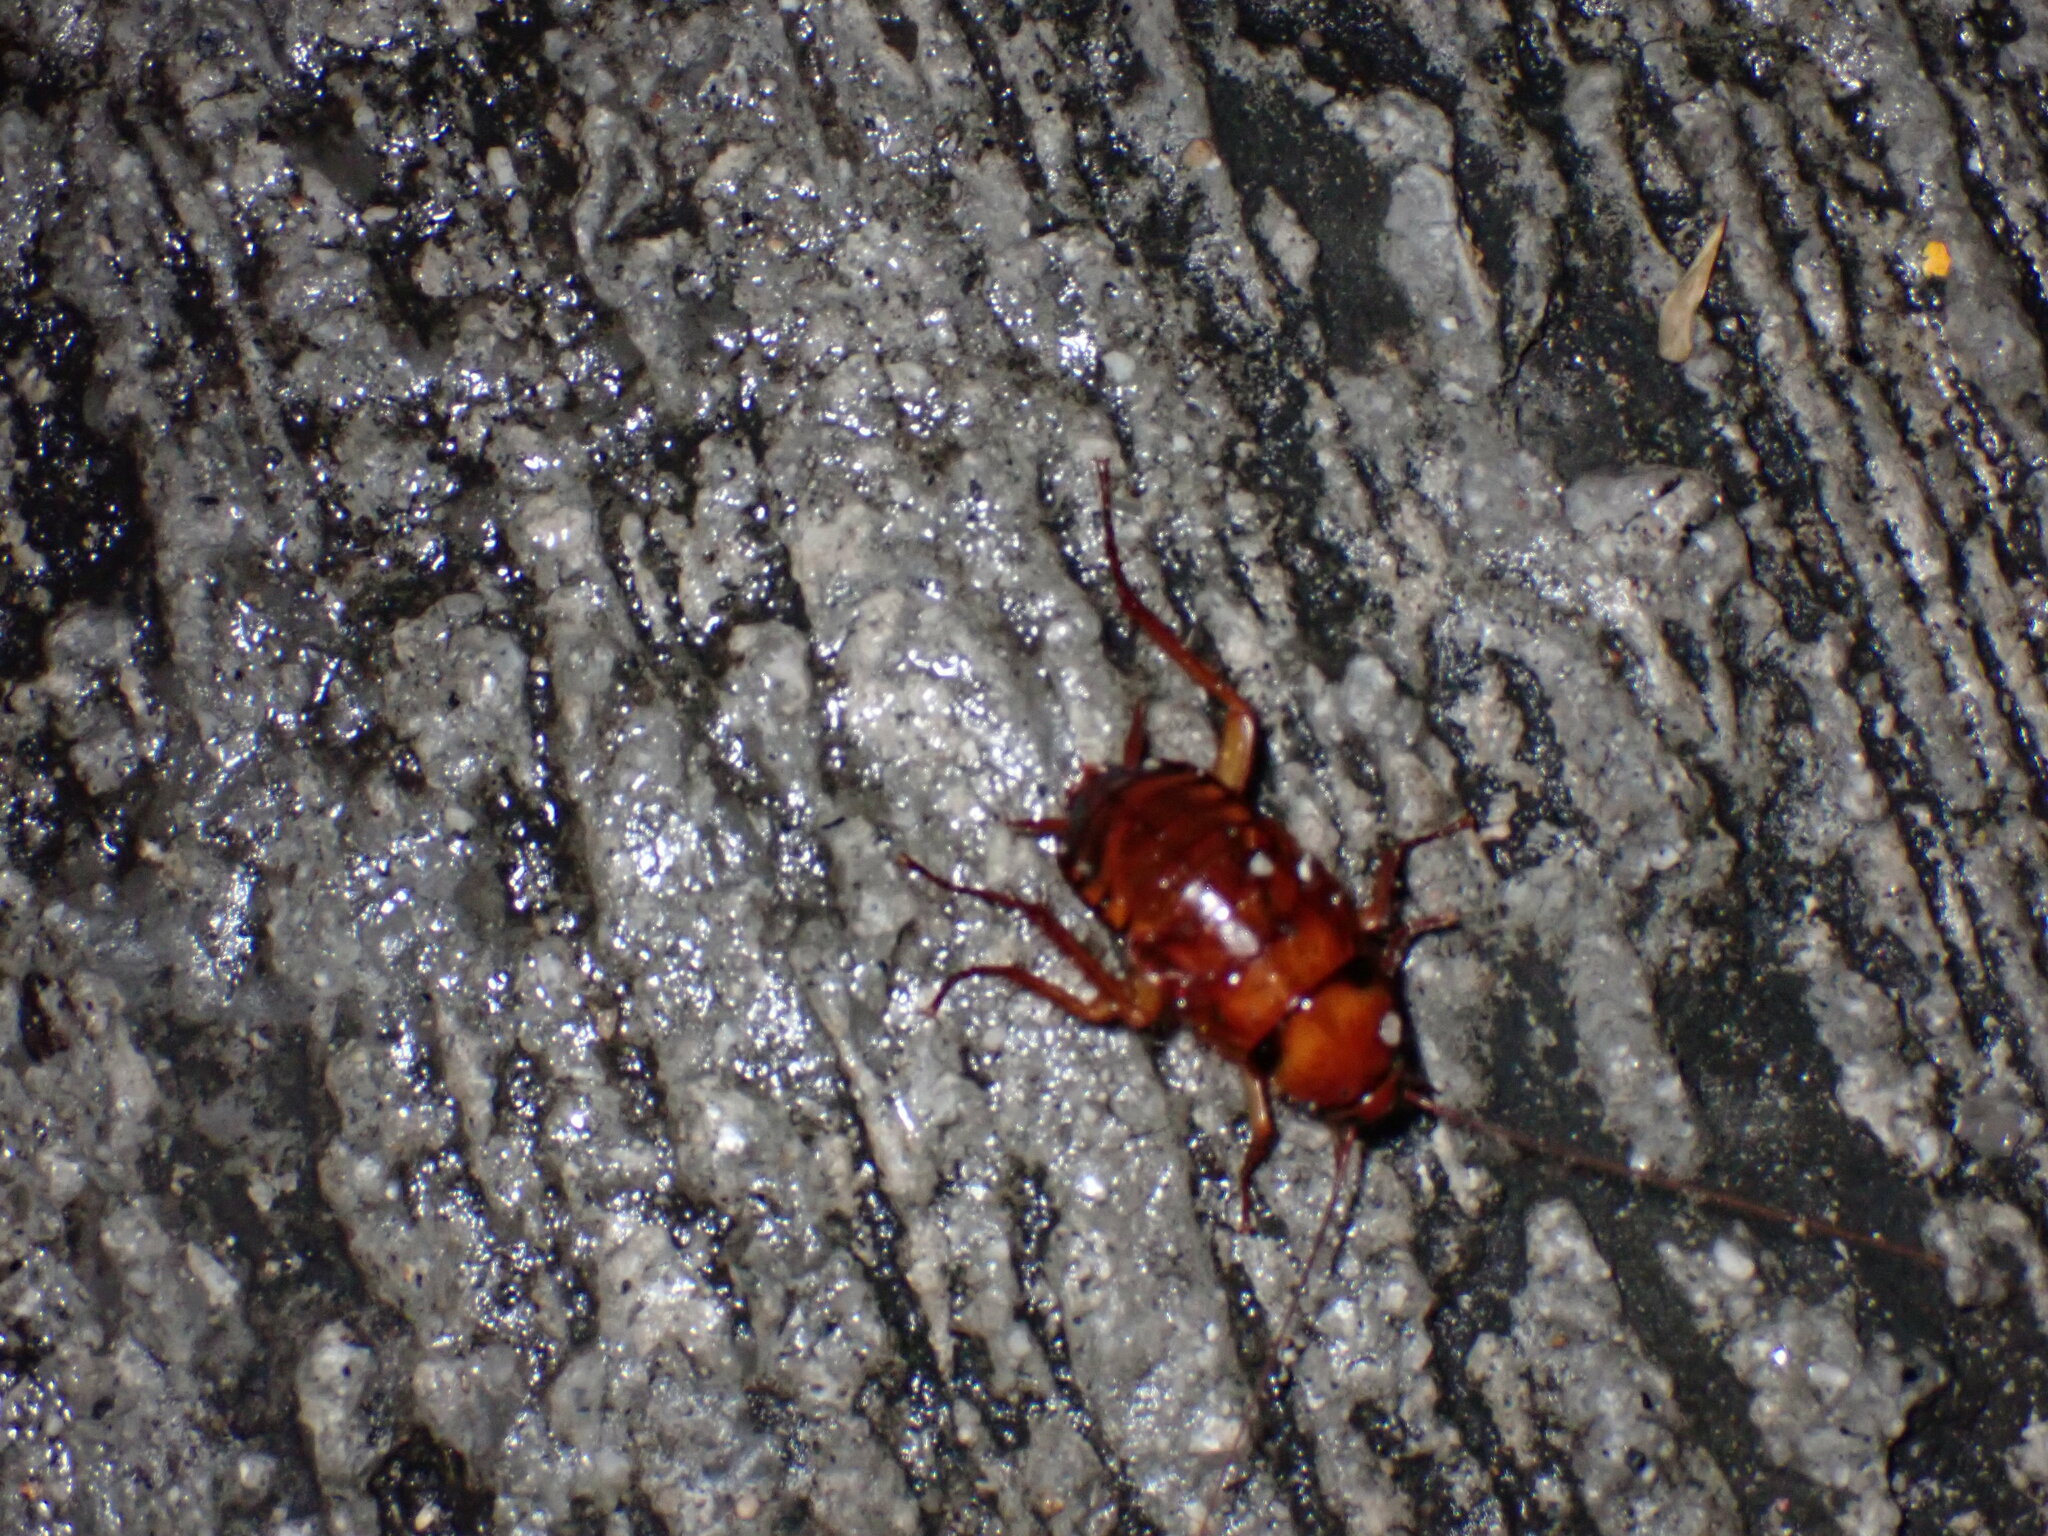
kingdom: Animalia
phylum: Arthropoda
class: Insecta
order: Blattodea
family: Blattidae
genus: Periplaneta
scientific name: Periplaneta americana
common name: American cockroach
